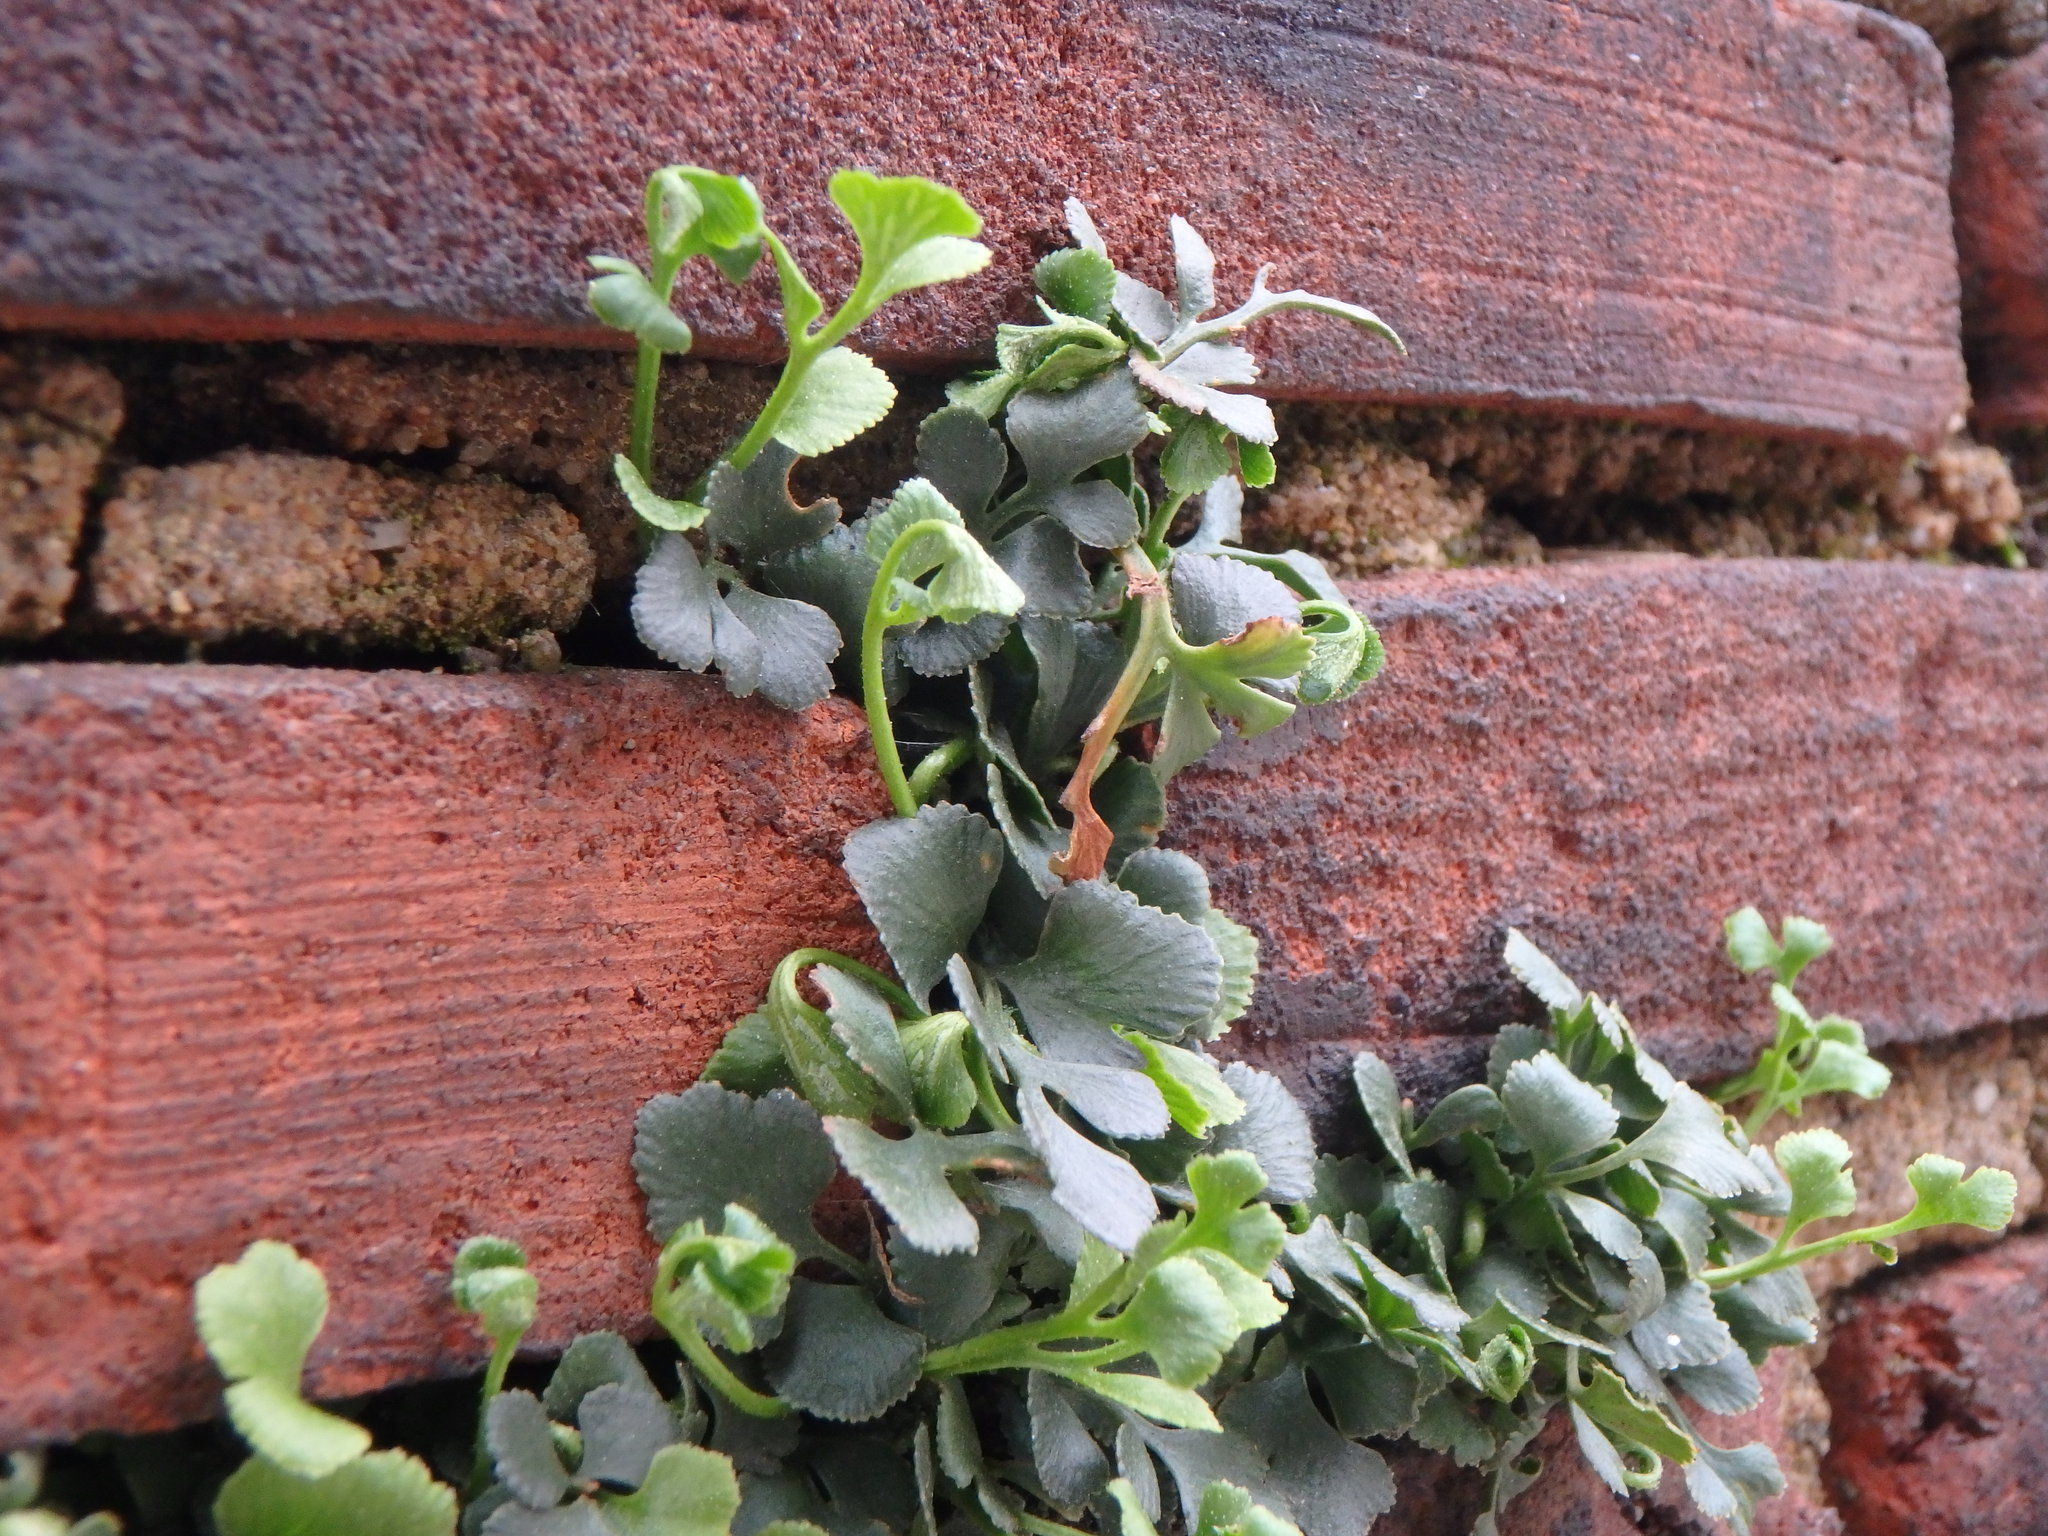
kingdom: Plantae
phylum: Tracheophyta
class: Polypodiopsida
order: Polypodiales
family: Aspleniaceae
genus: Asplenium
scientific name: Asplenium ruta-muraria
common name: Wall-rue
